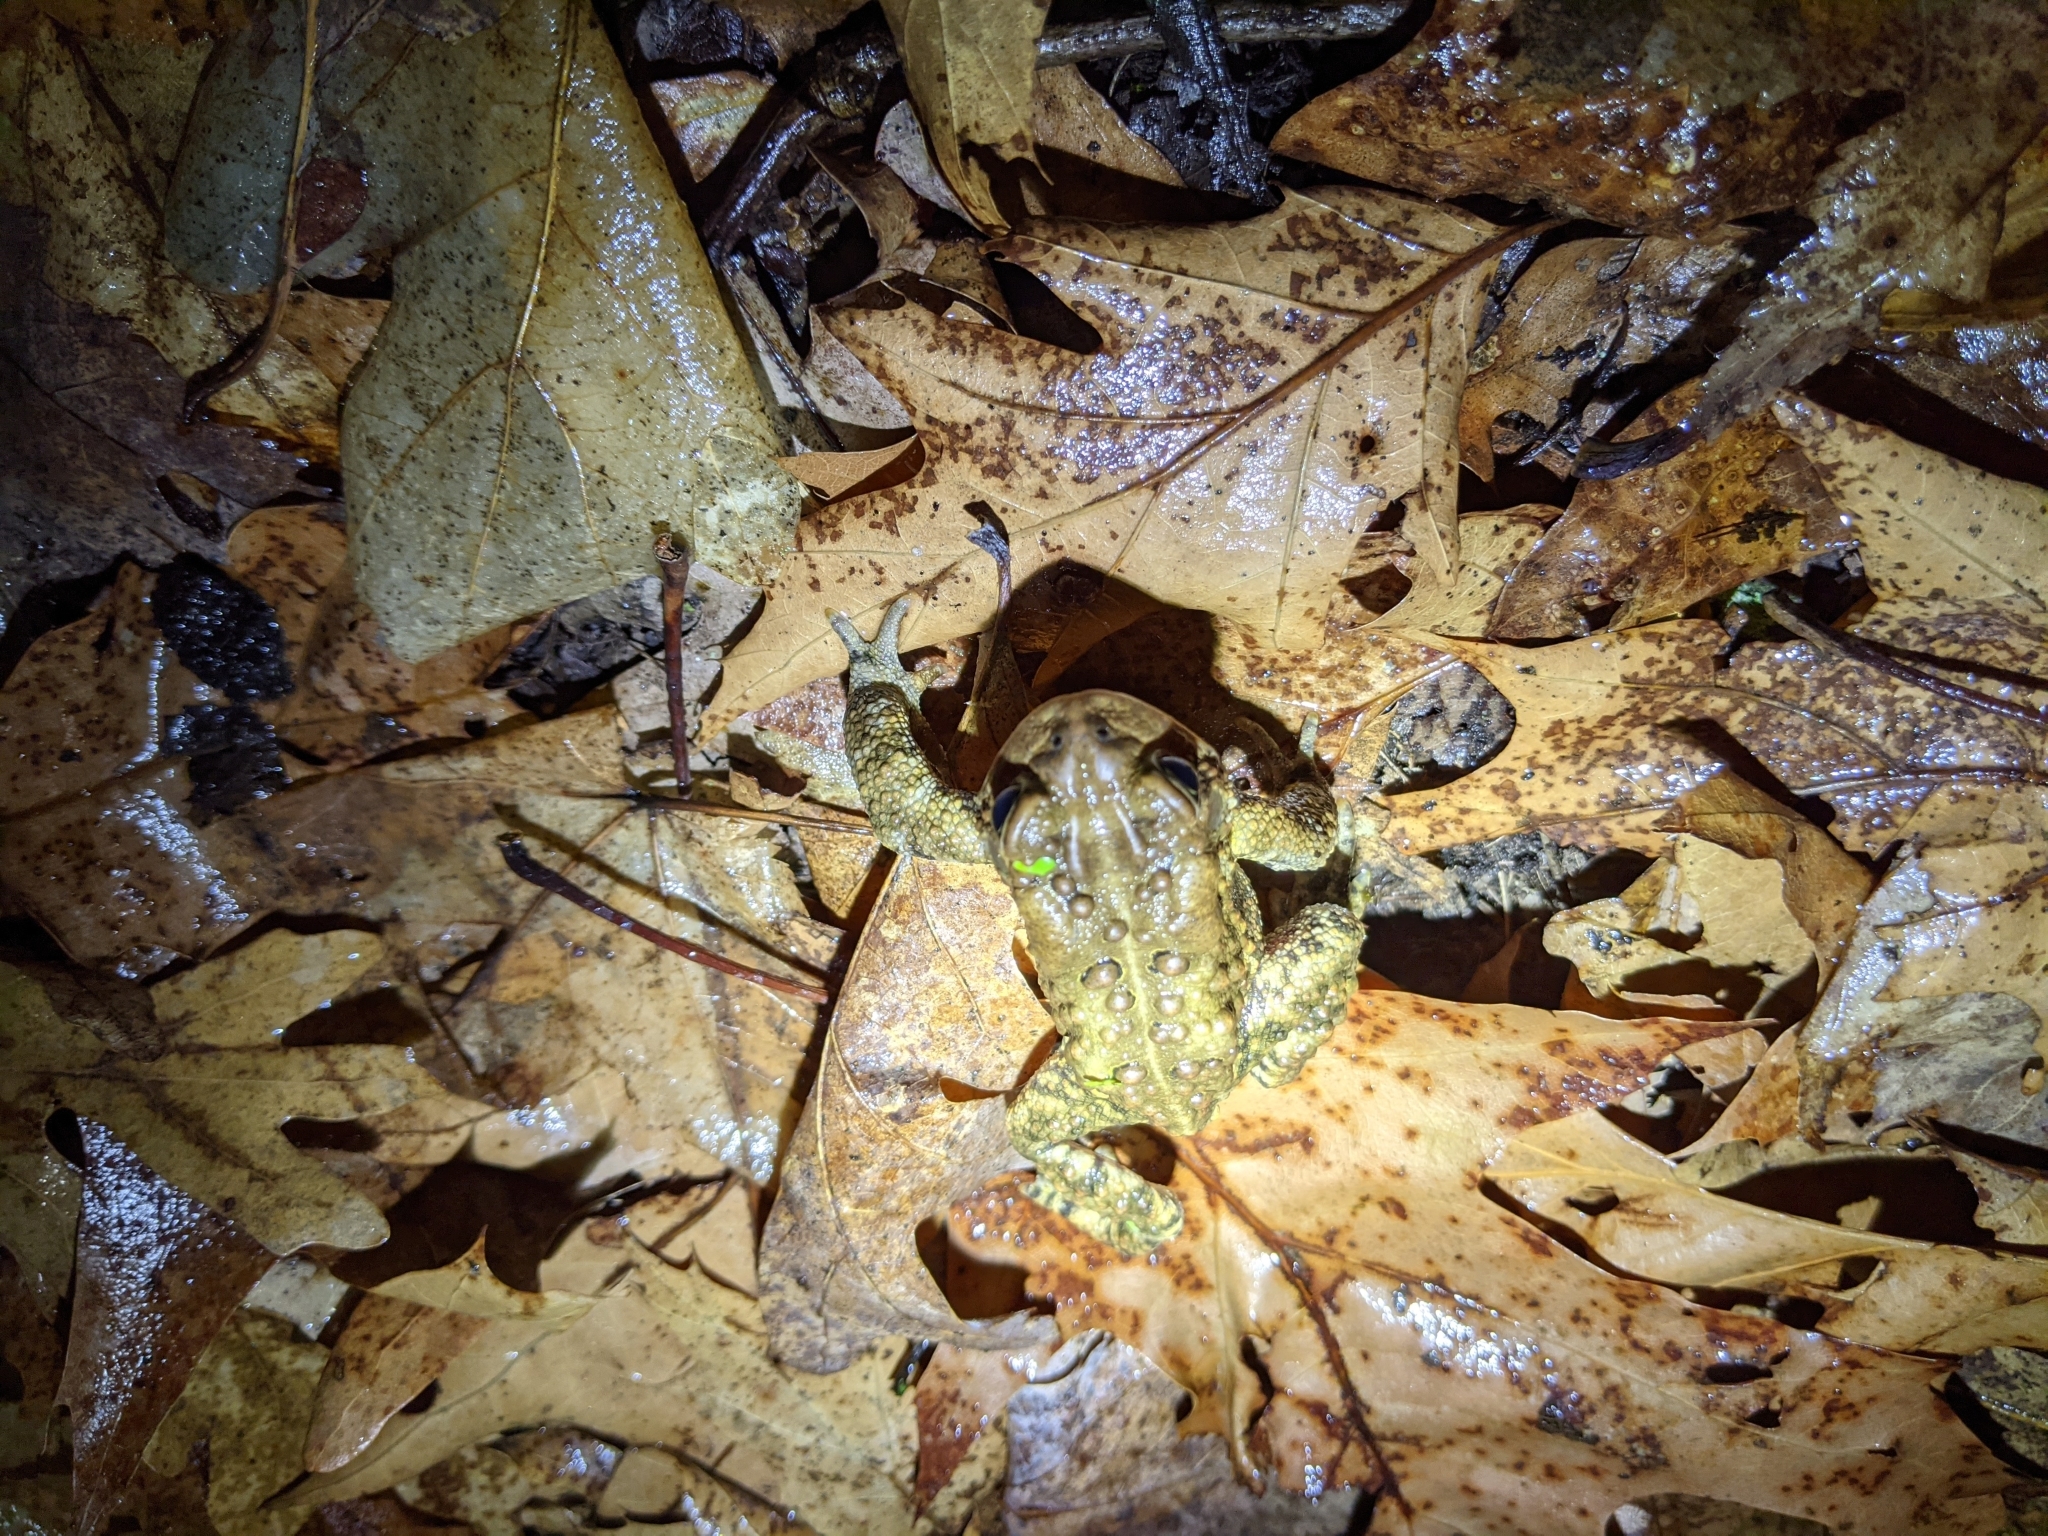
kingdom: Animalia
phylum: Chordata
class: Amphibia
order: Anura
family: Bufonidae
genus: Anaxyrus
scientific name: Anaxyrus americanus
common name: American toad
